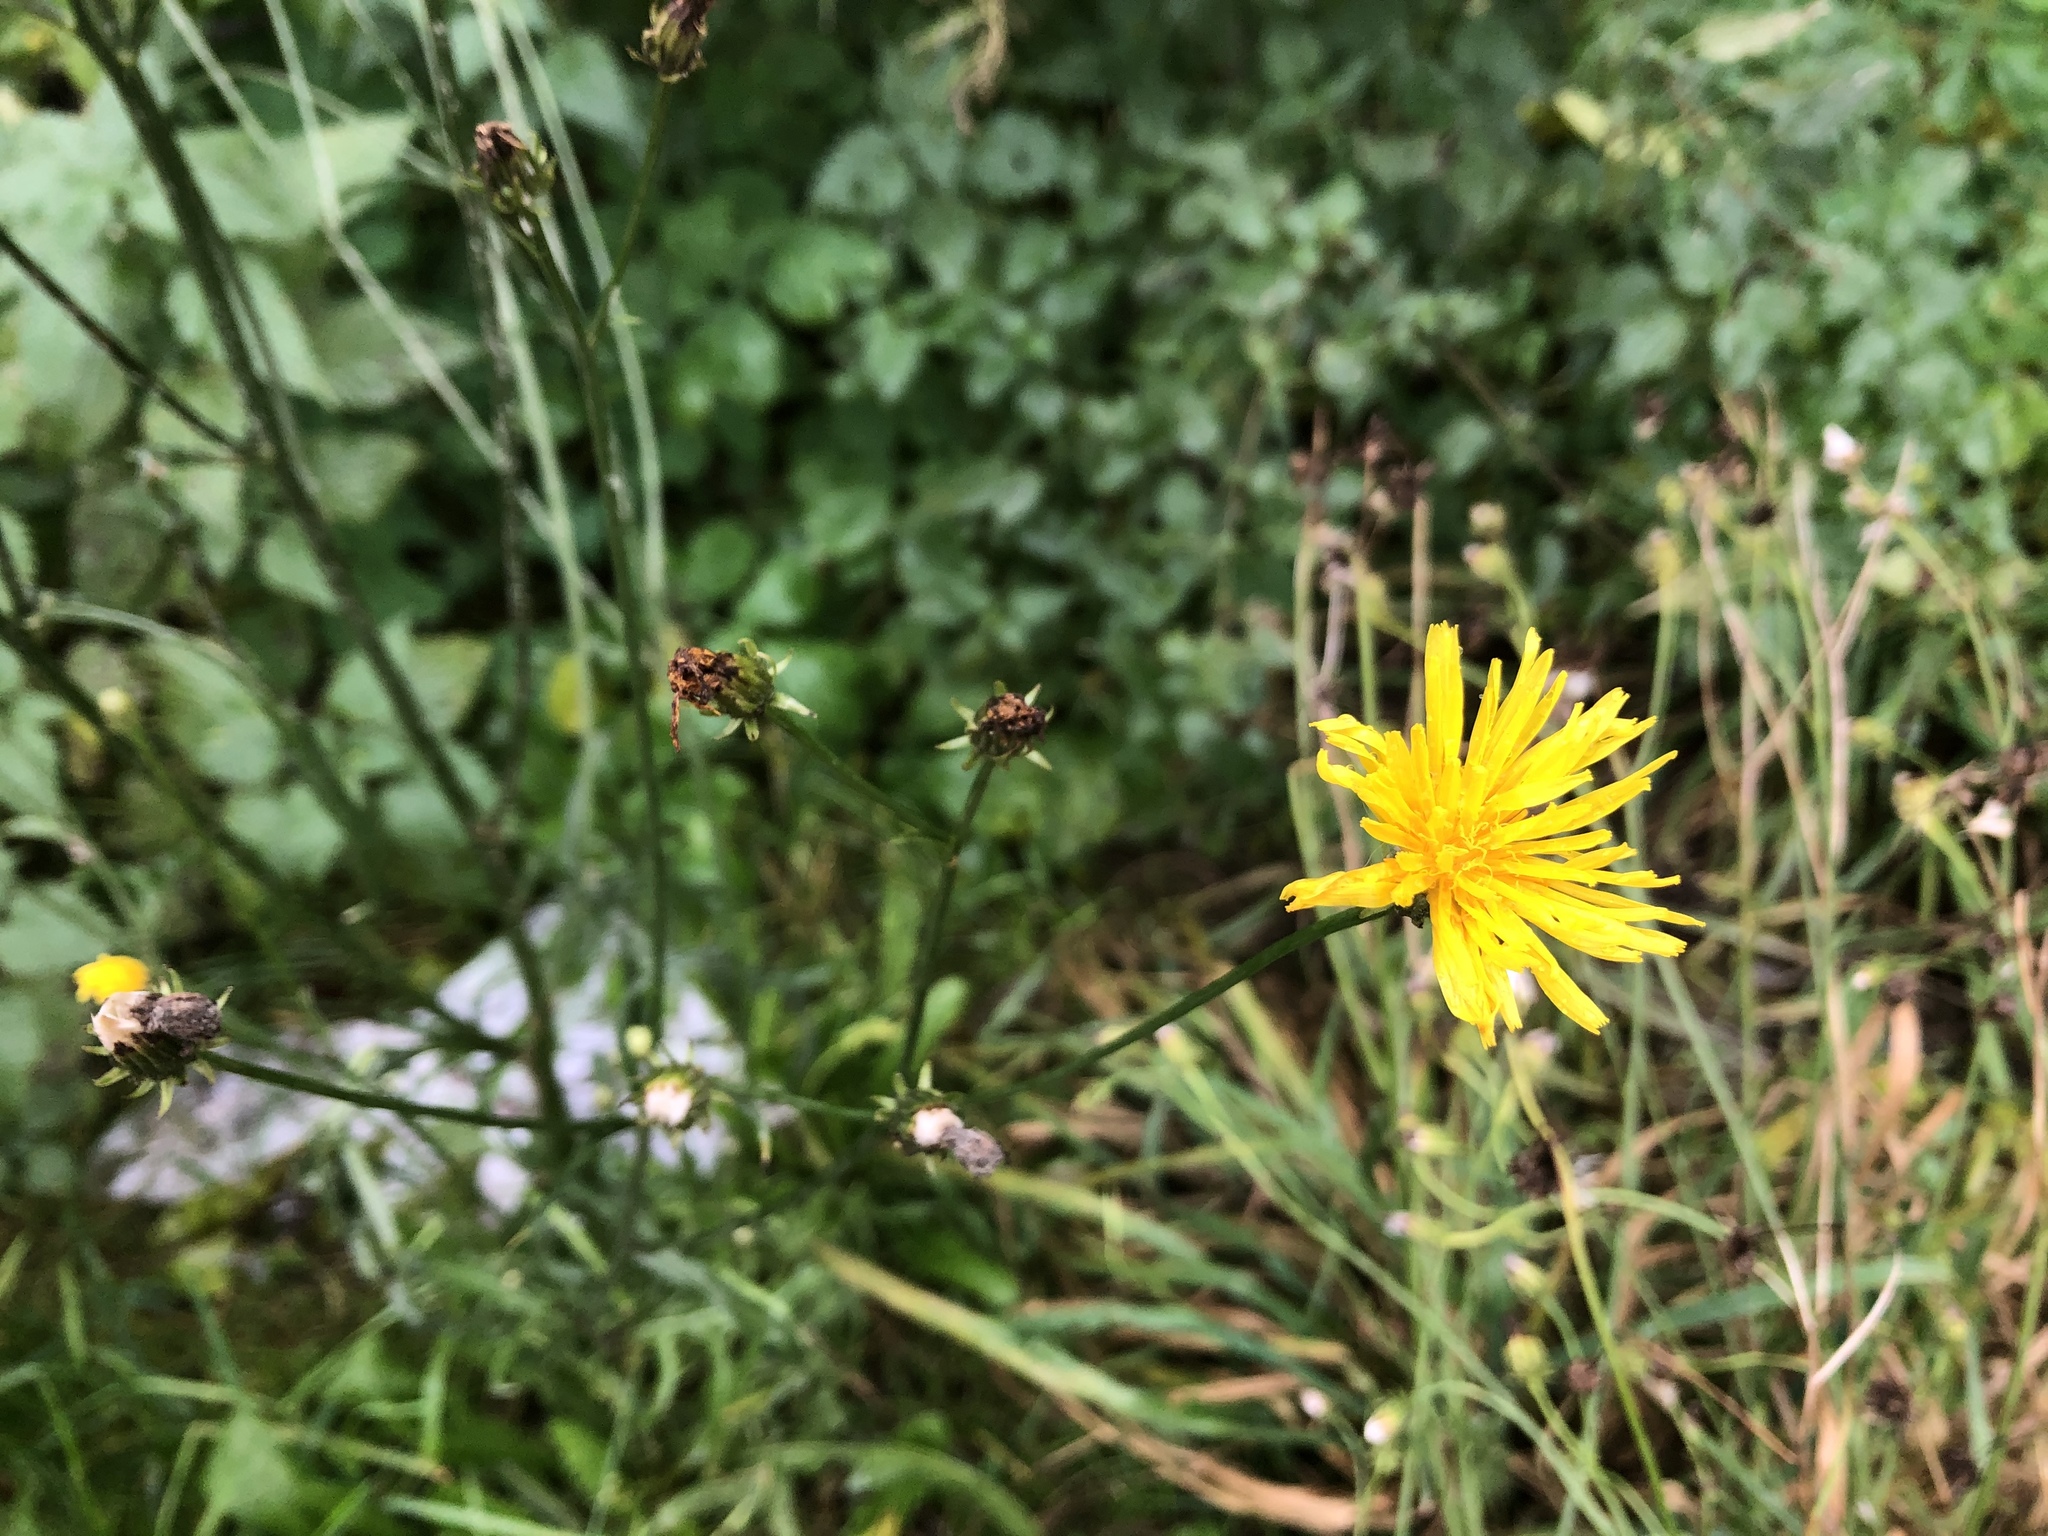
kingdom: Plantae
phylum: Tracheophyta
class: Magnoliopsida
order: Asterales
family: Asteraceae
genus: Crepis
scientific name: Crepis biennis
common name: Rough hawk's-beard
